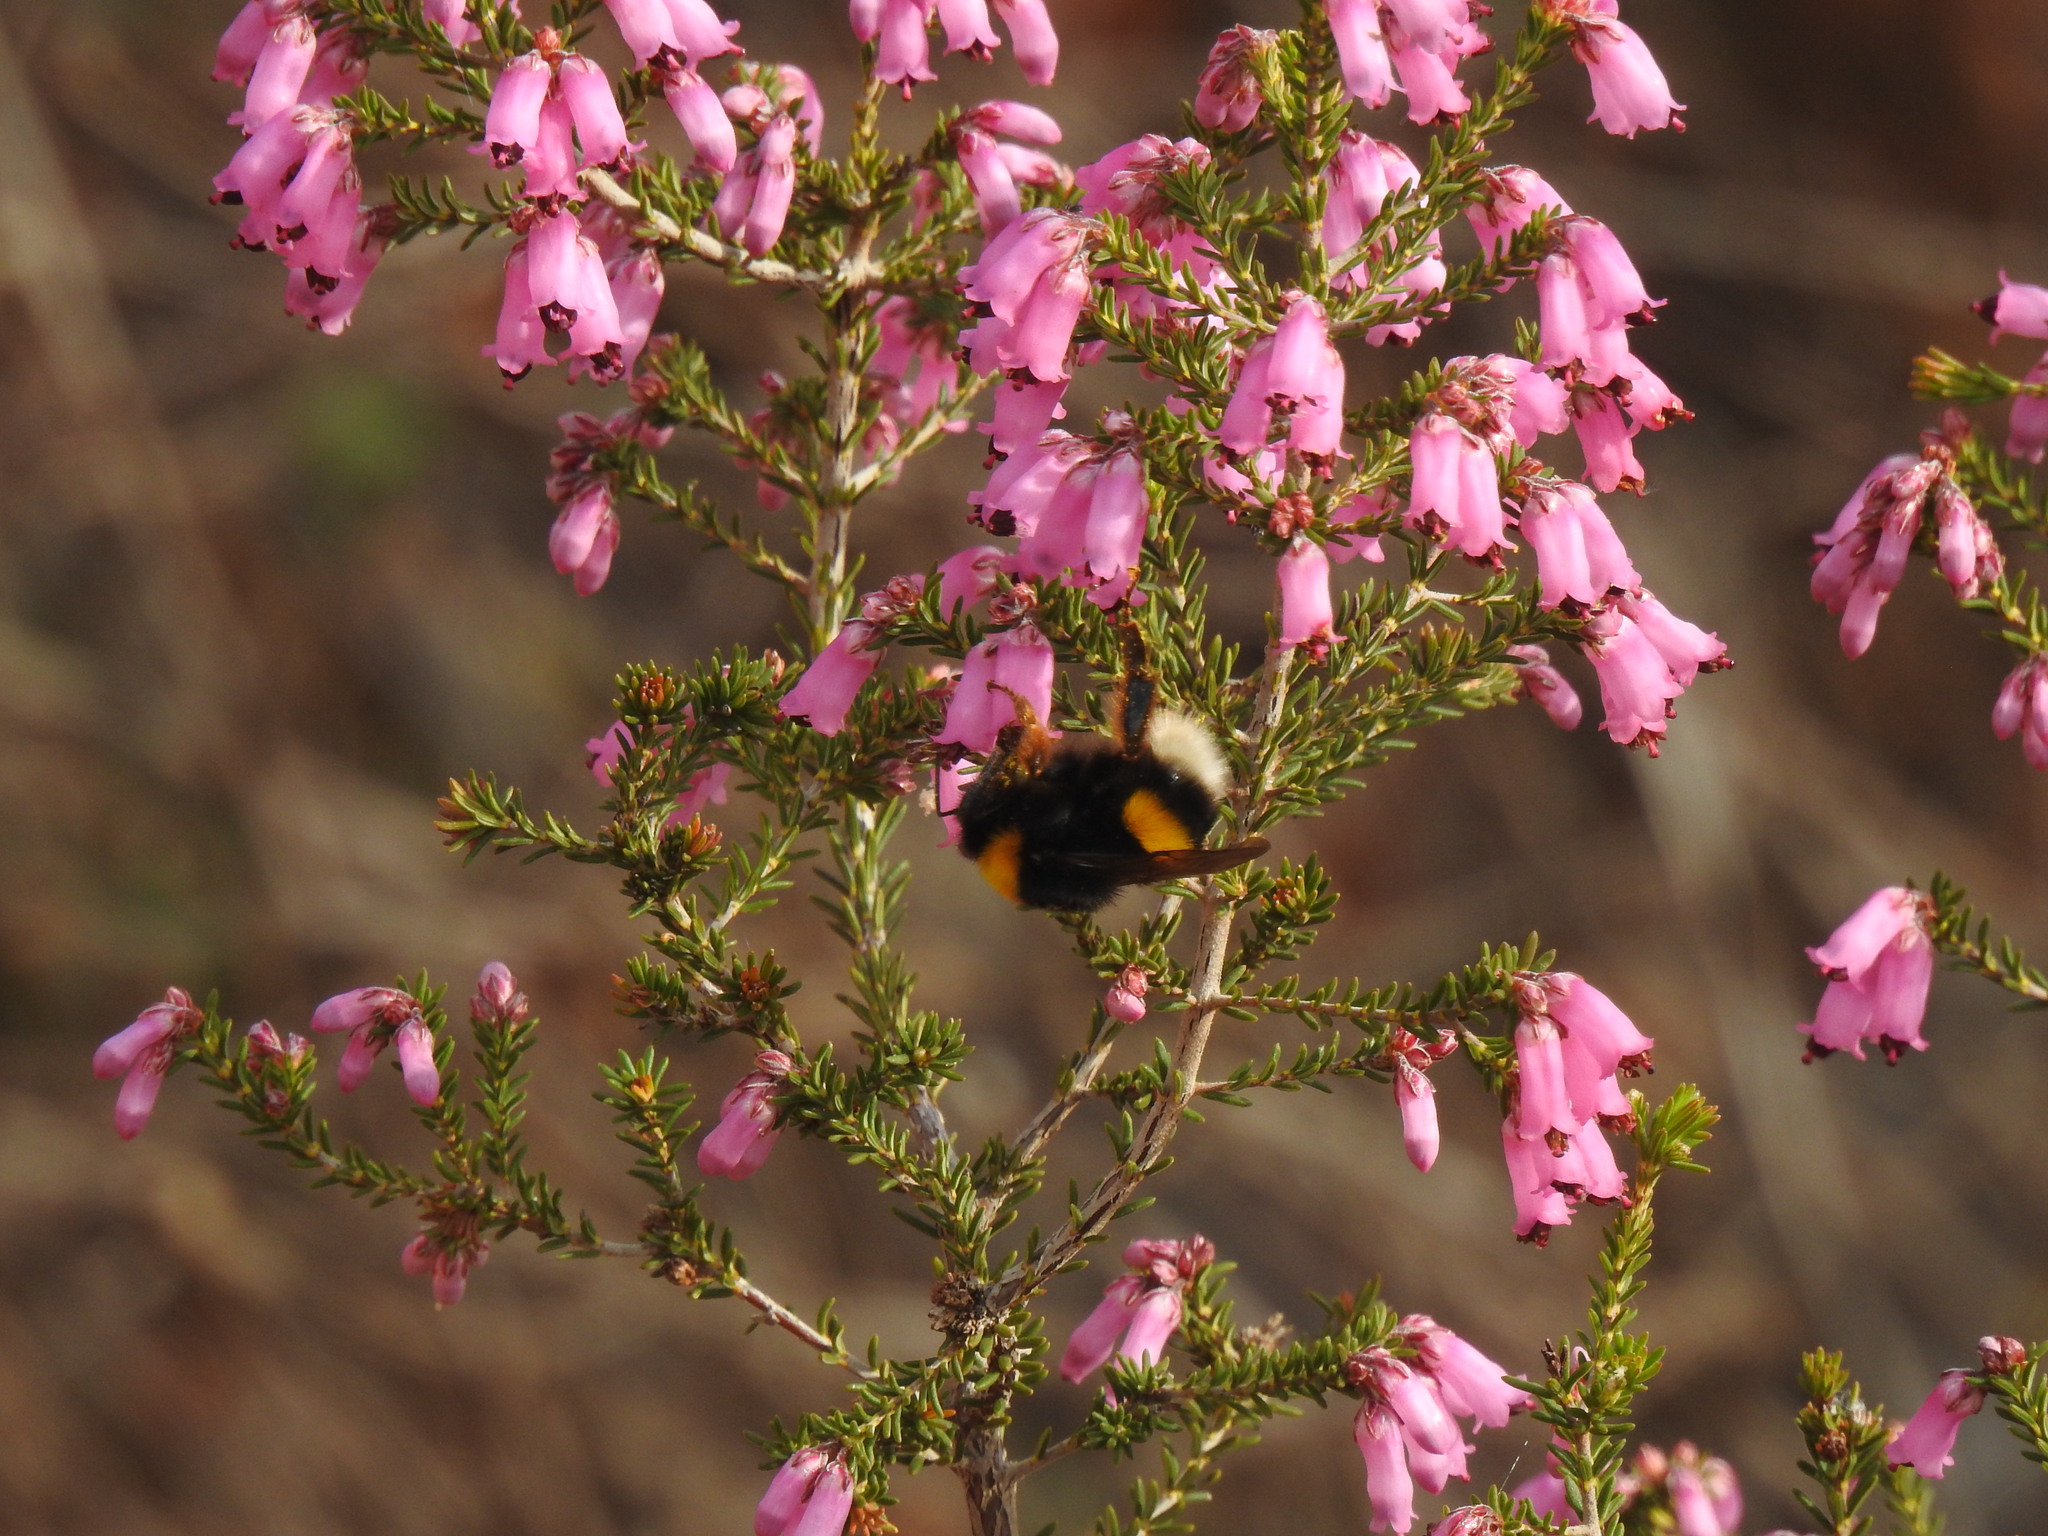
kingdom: Animalia
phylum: Arthropoda
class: Insecta
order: Hymenoptera
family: Apidae
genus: Bombus
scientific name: Bombus terrestris
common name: Buff-tailed bumblebee
